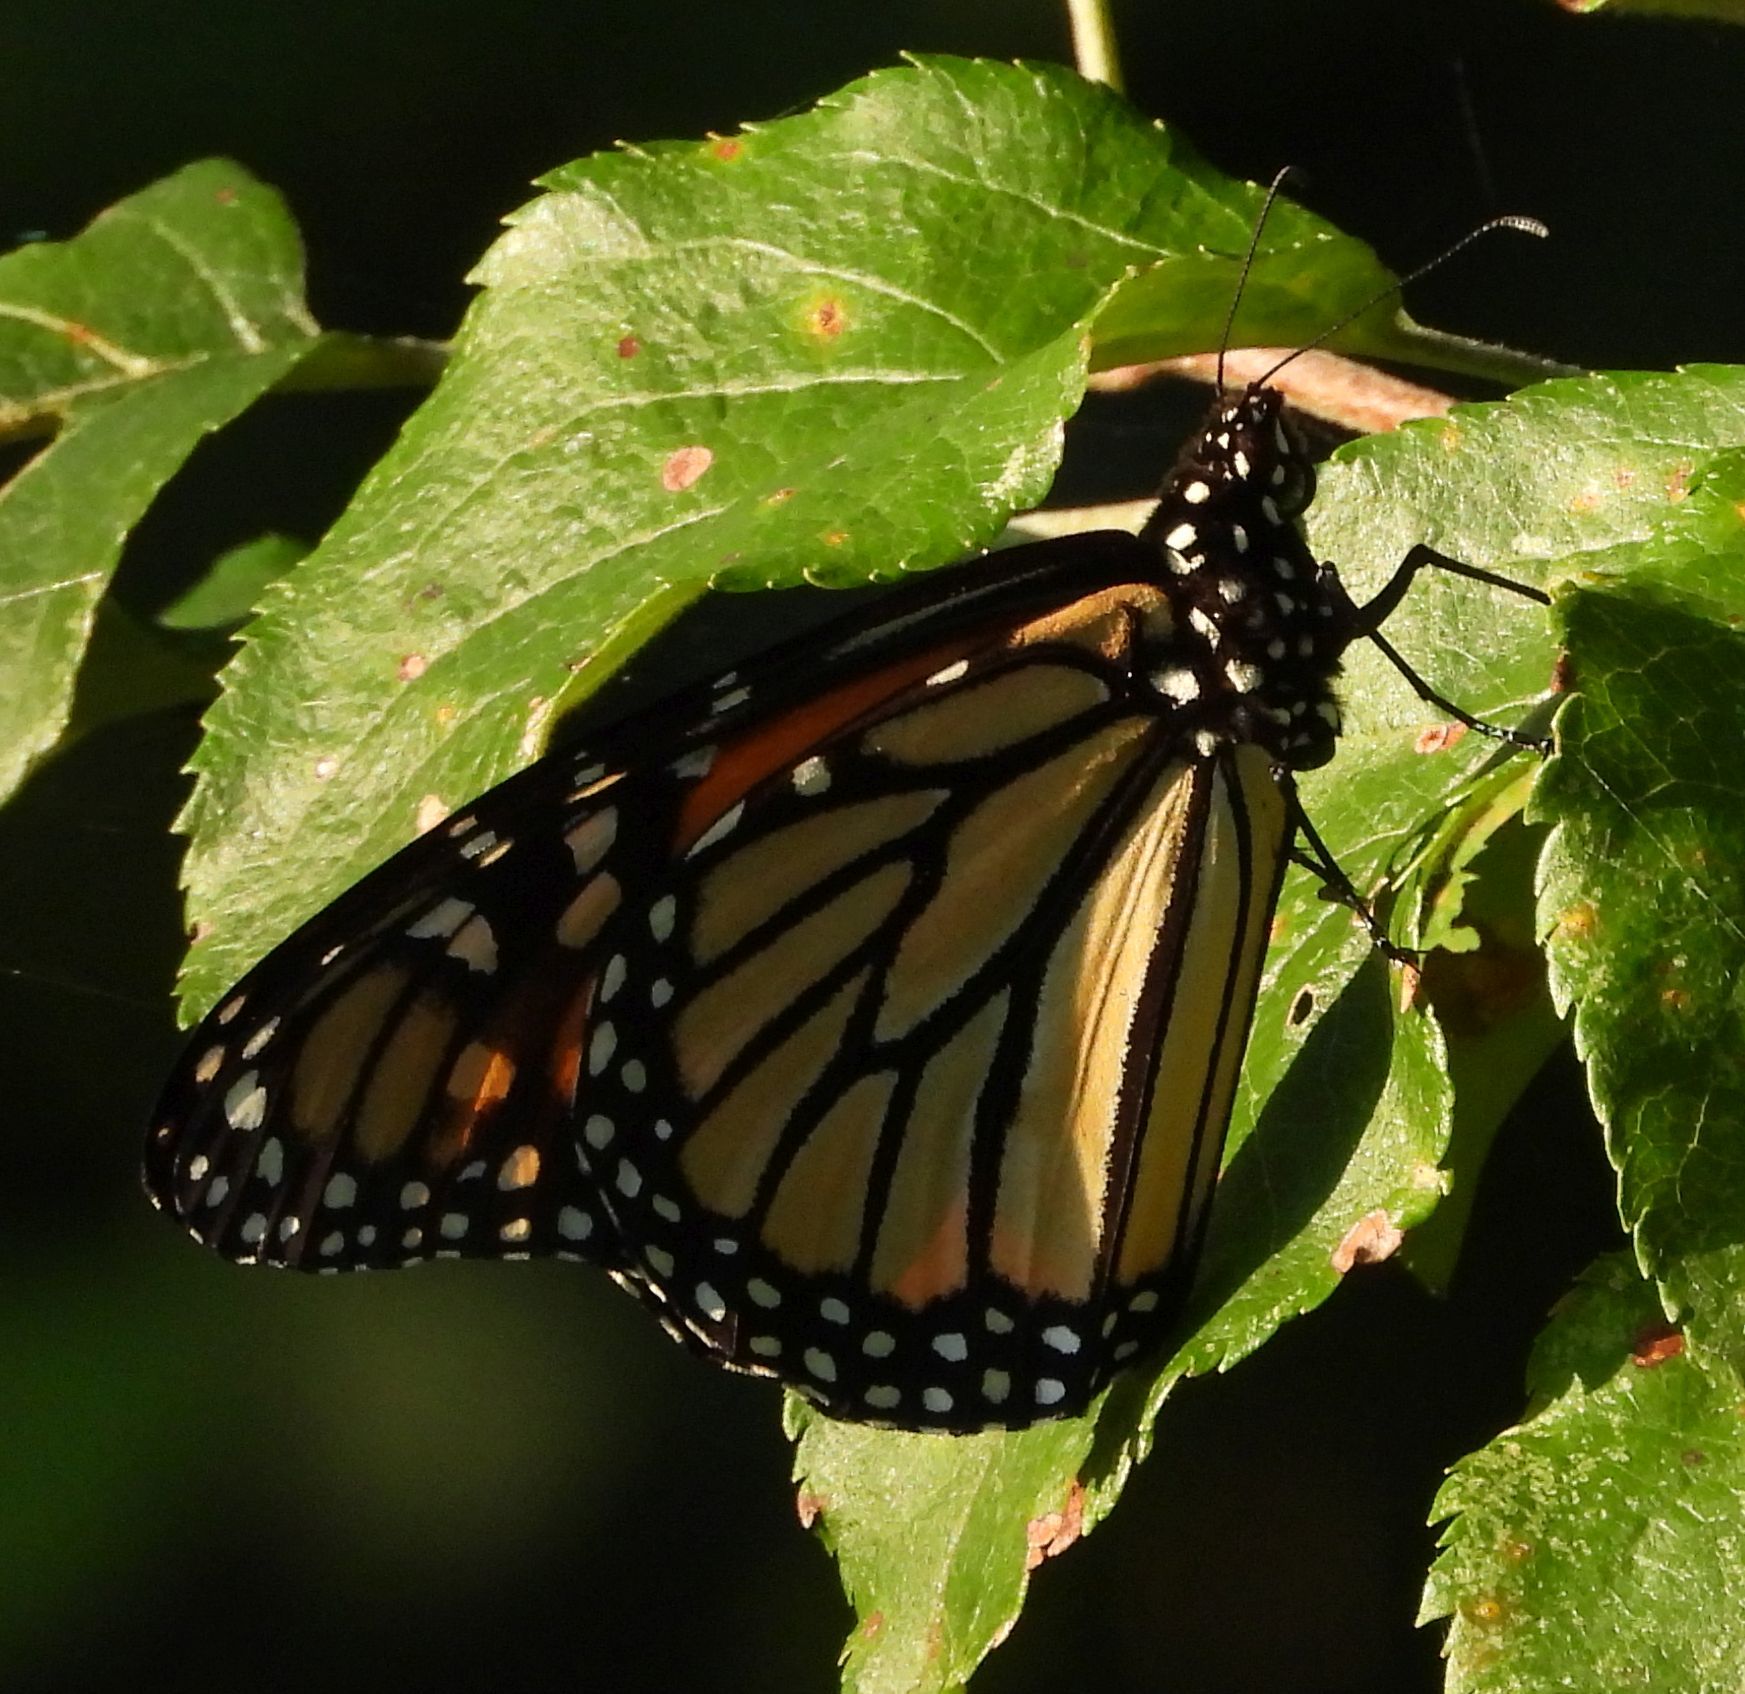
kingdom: Animalia
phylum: Arthropoda
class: Insecta
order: Lepidoptera
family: Nymphalidae
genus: Danaus
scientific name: Danaus plexippus
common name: Monarch
